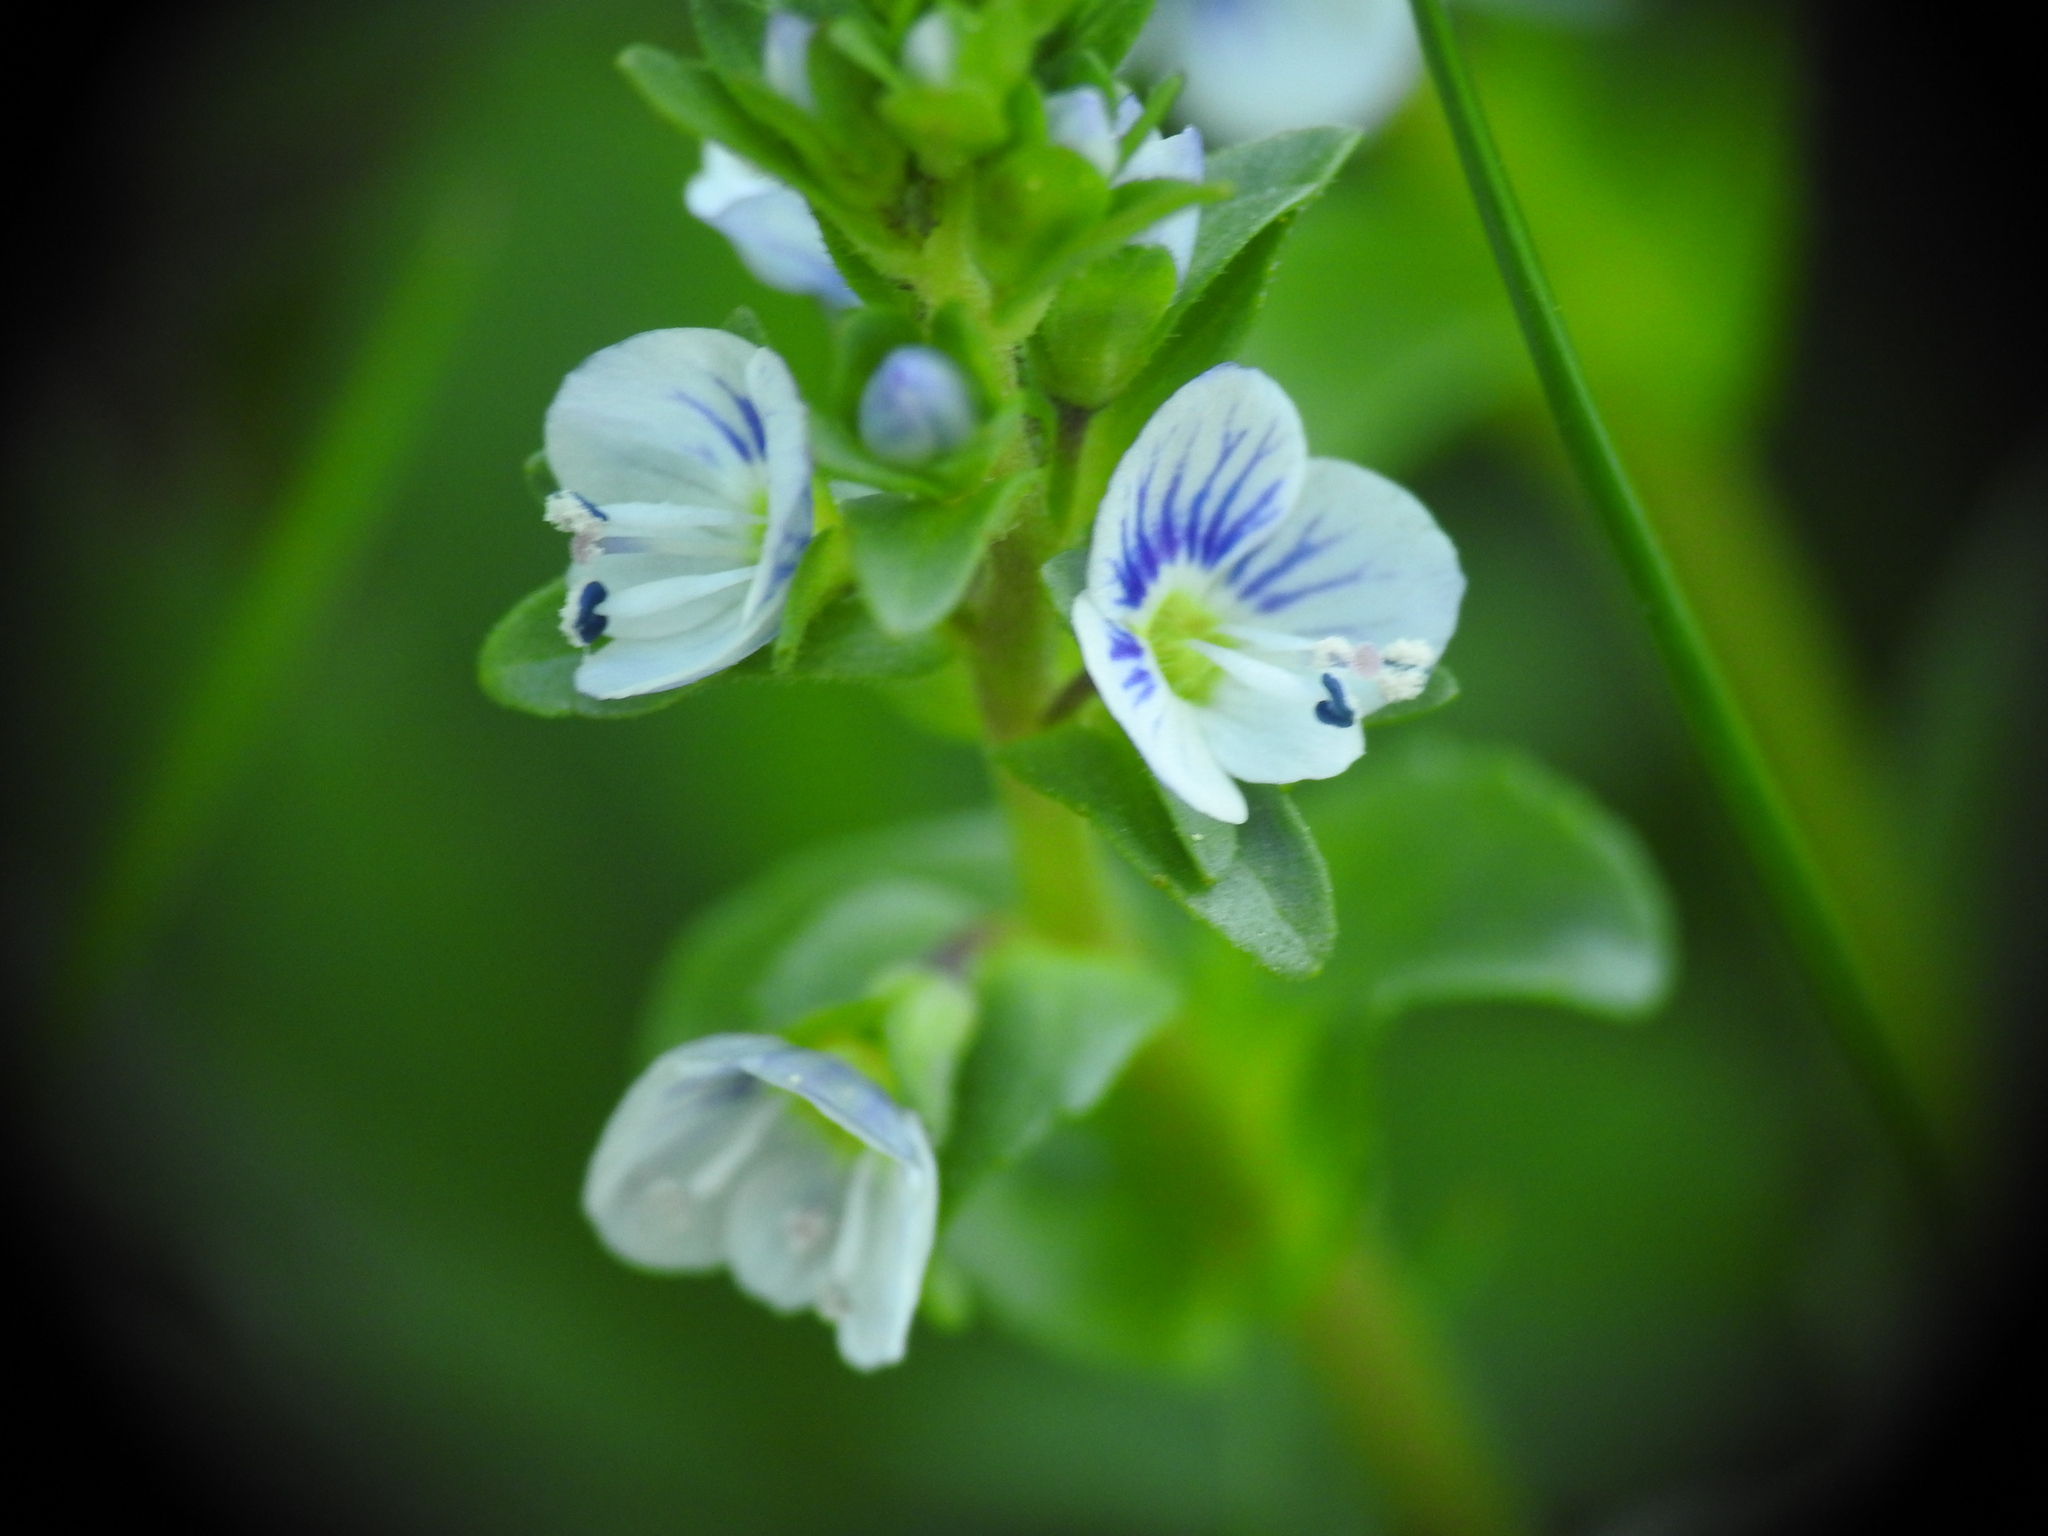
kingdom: Plantae
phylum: Tracheophyta
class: Magnoliopsida
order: Lamiales
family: Plantaginaceae
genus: Veronica
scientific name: Veronica serpyllifolia
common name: Thyme-leaved speedwell
